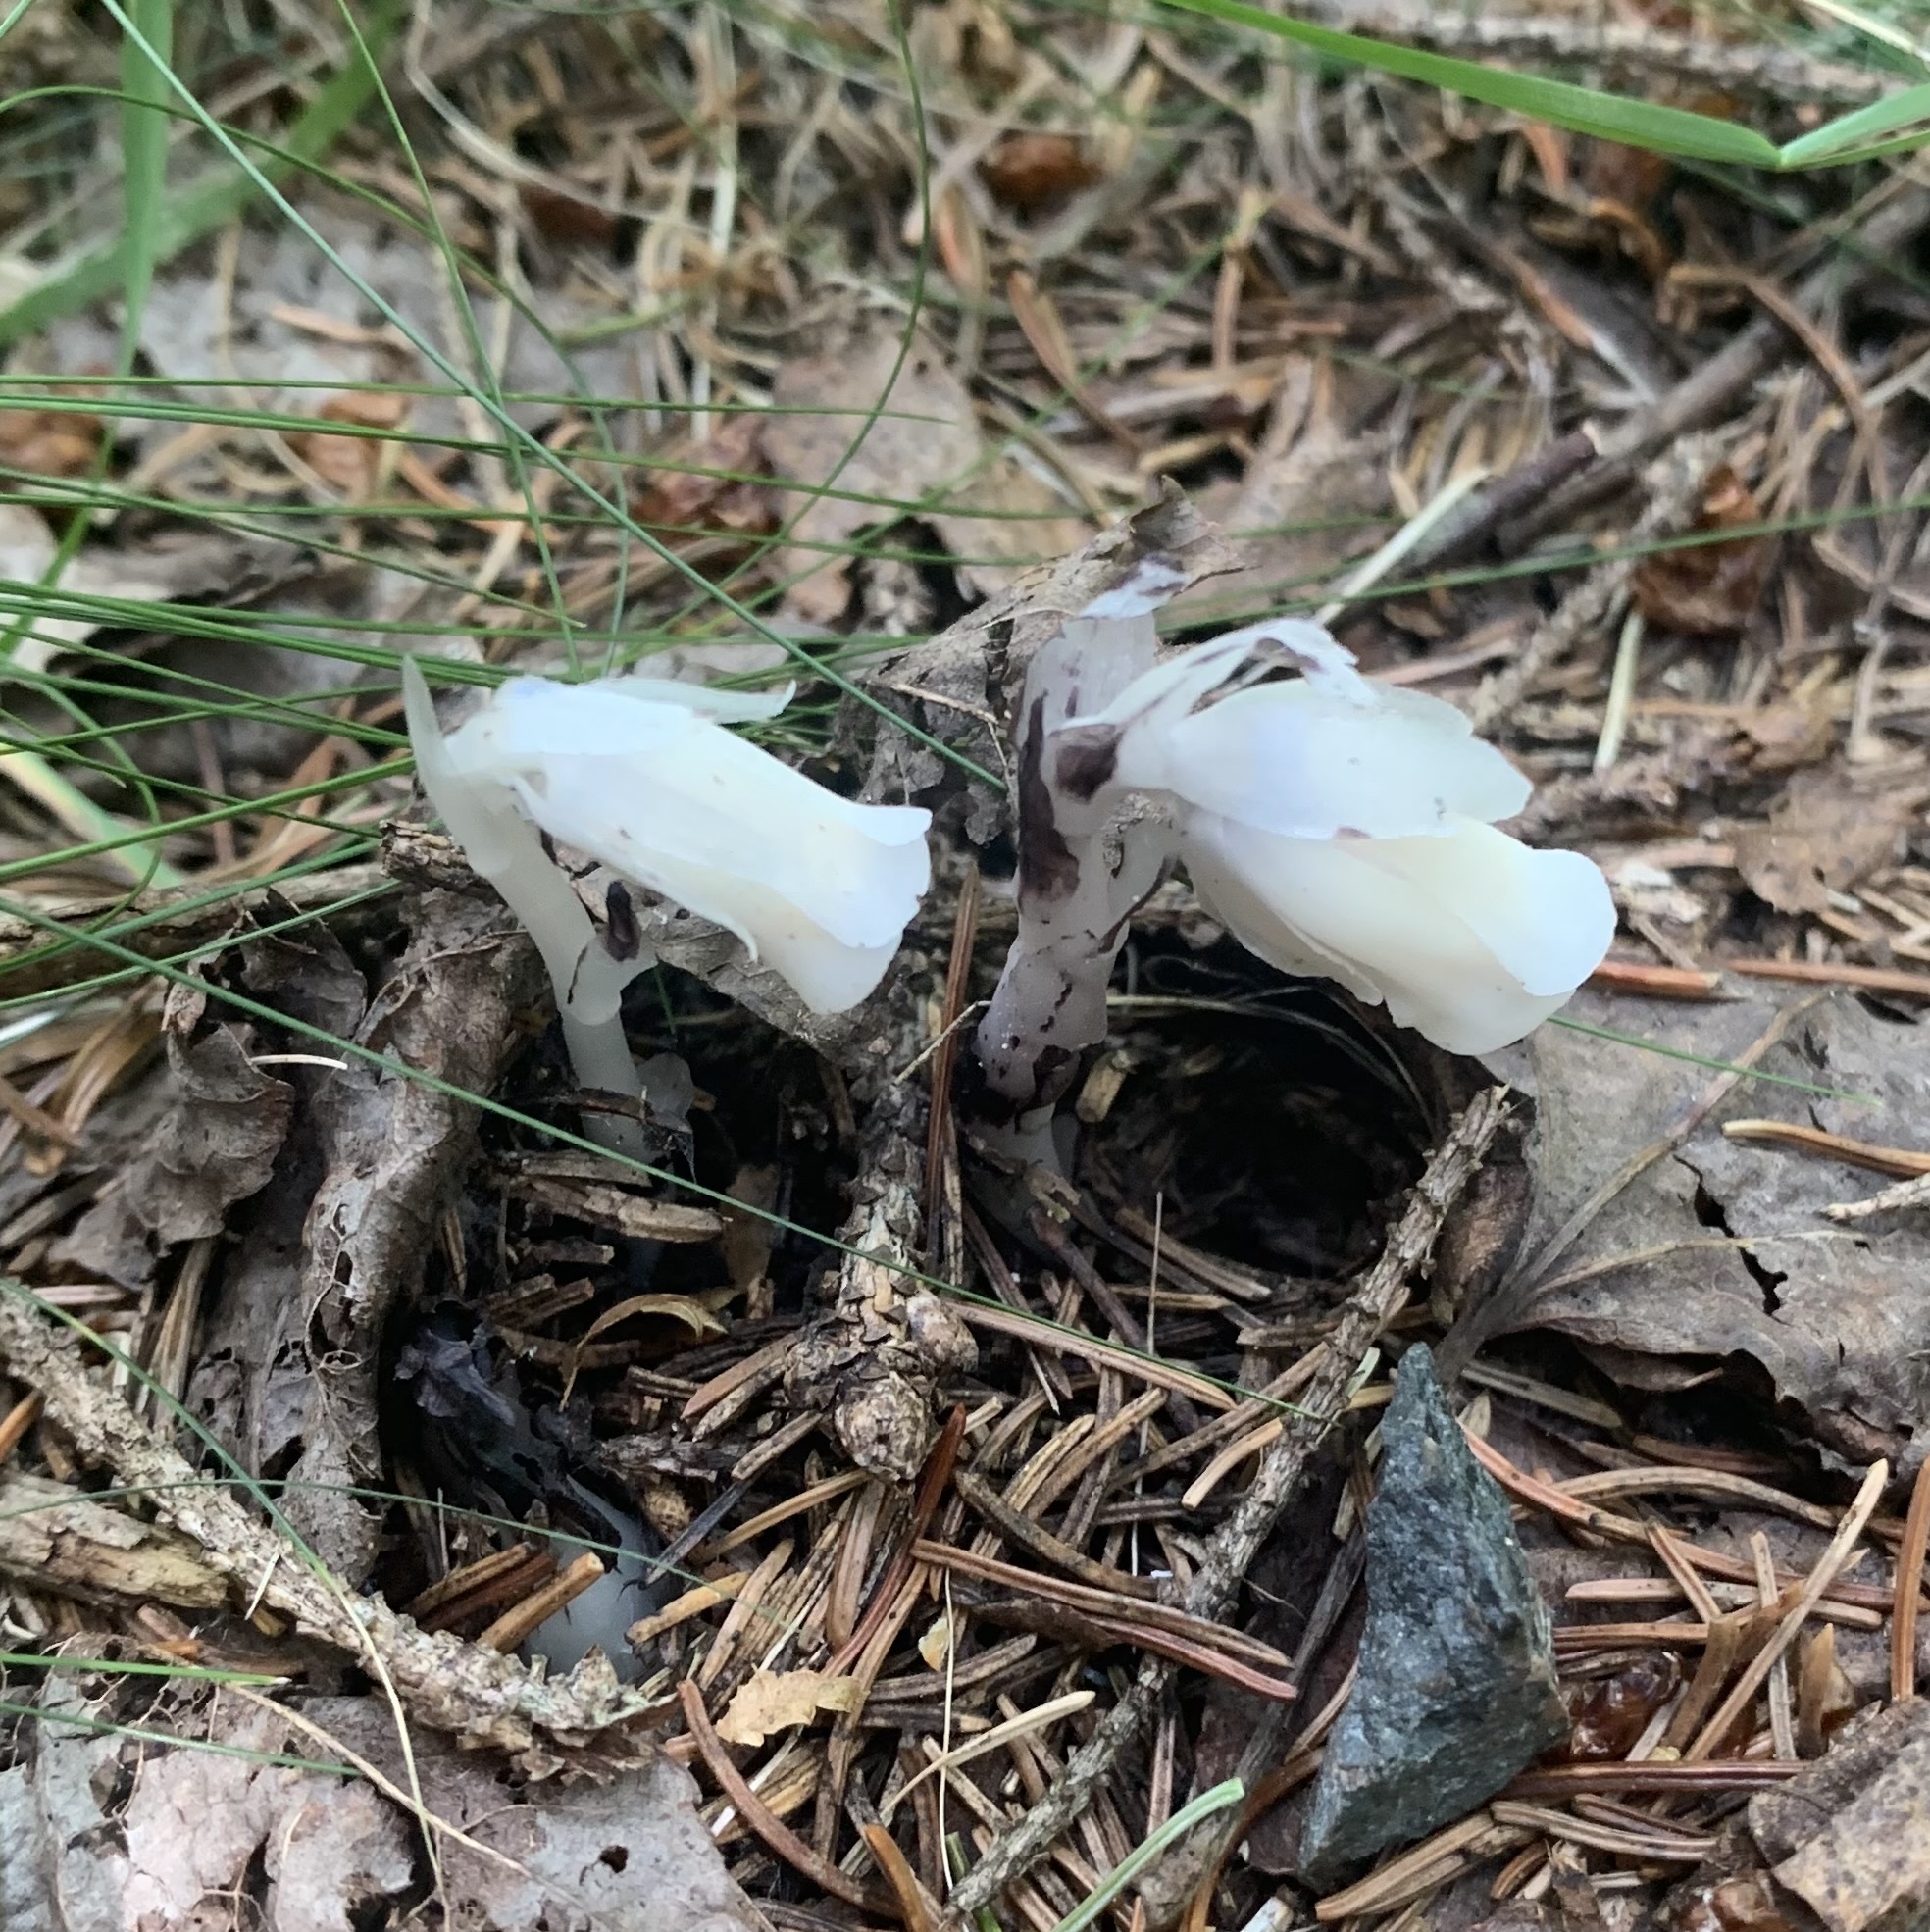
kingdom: Plantae
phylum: Tracheophyta
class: Magnoliopsida
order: Ericales
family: Ericaceae
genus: Monotropa
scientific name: Monotropa uniflora
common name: Convulsion root
